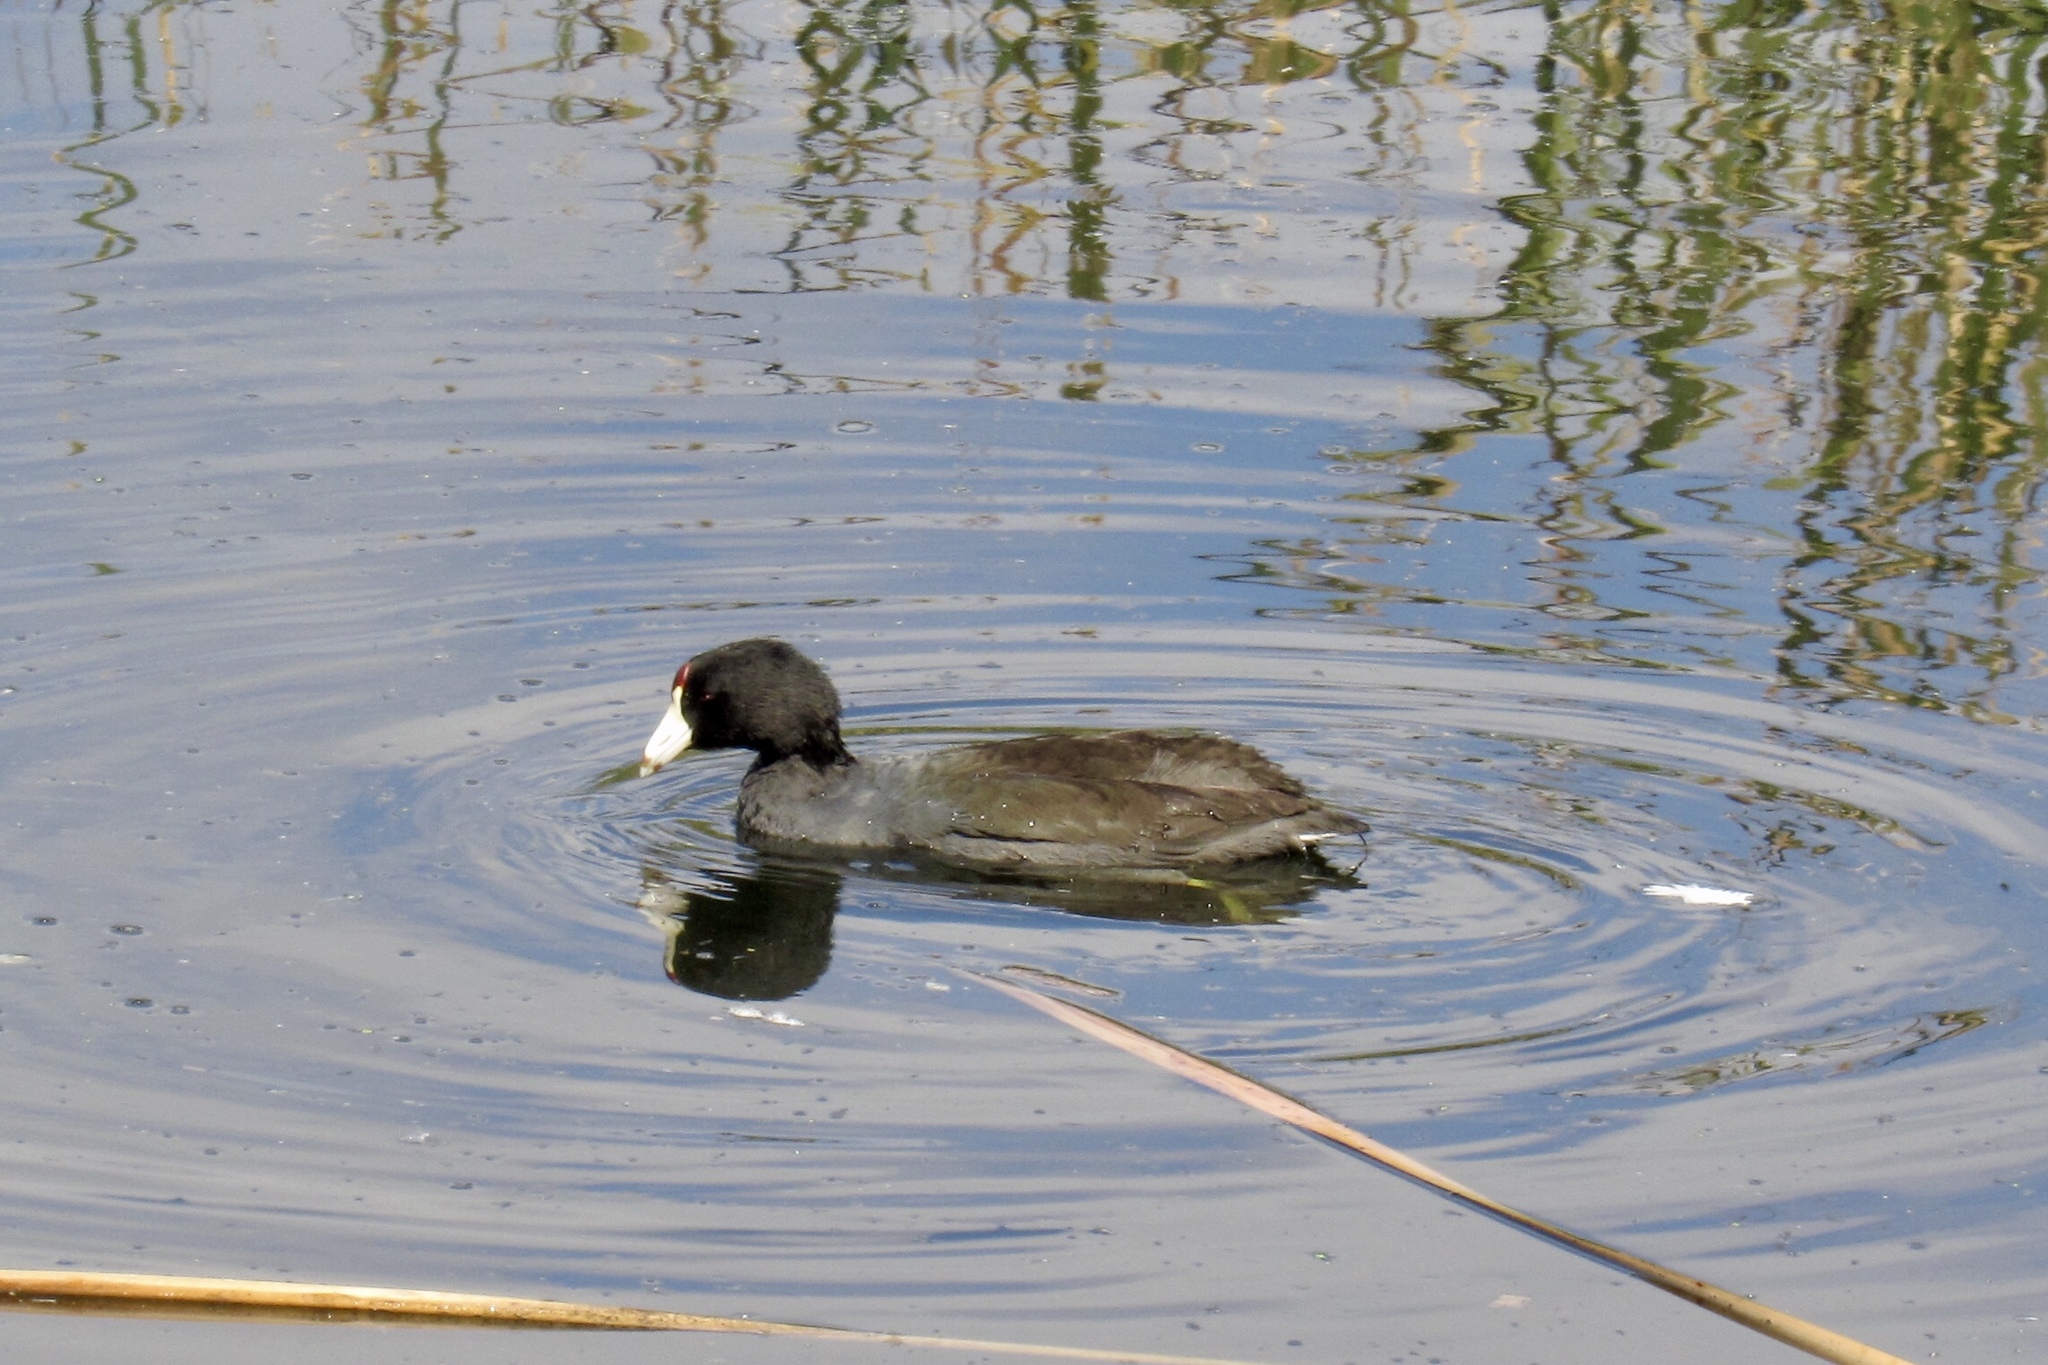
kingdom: Animalia
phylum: Chordata
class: Aves
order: Gruiformes
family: Rallidae
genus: Fulica
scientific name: Fulica americana
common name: American coot
